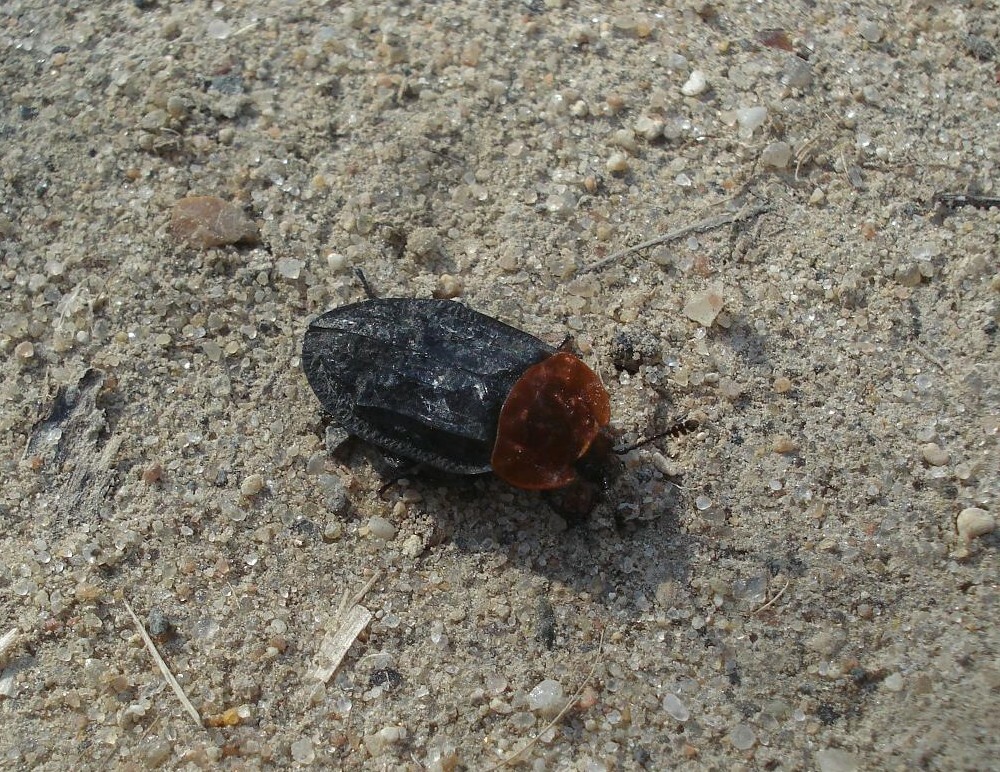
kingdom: Animalia
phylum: Arthropoda
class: Insecta
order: Coleoptera
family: Staphylinidae
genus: Oiceoptoma
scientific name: Oiceoptoma thoracicum
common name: Red-breasted carrion beetle
